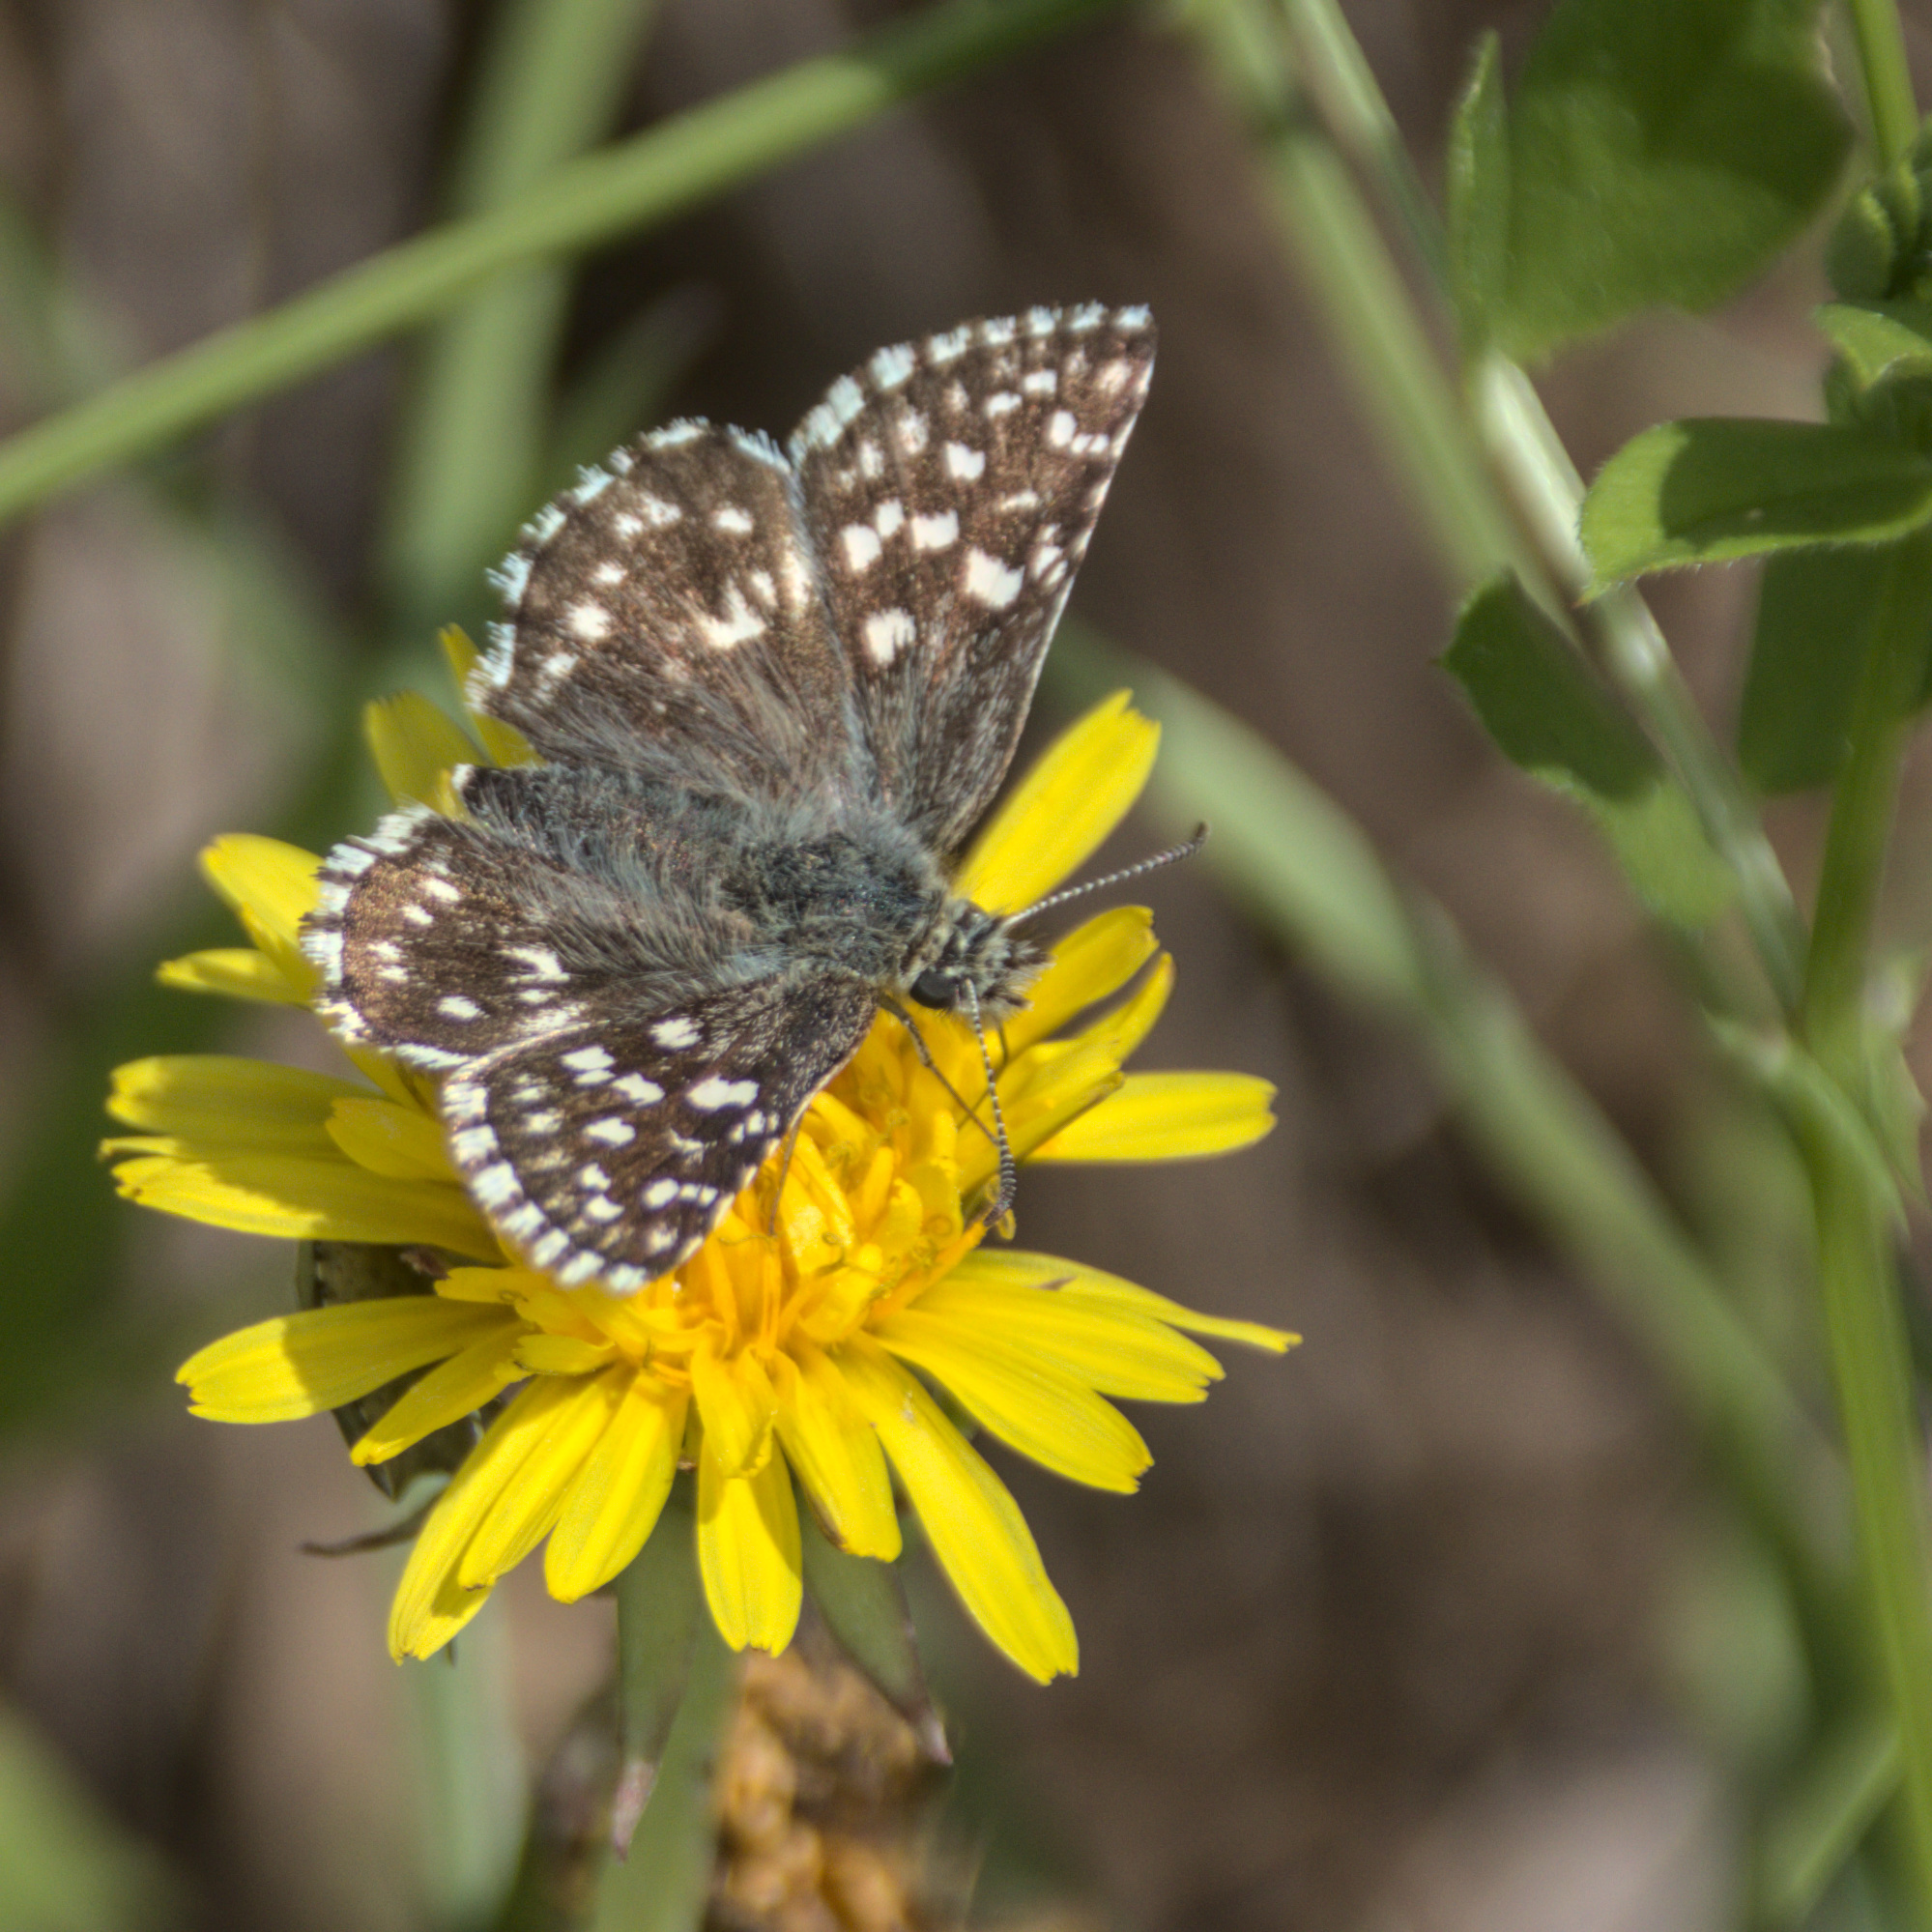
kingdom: Animalia
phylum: Arthropoda
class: Insecta
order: Lepidoptera
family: Hesperiidae
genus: Pyrgus
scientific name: Pyrgus malvae
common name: Grizzled skipper
